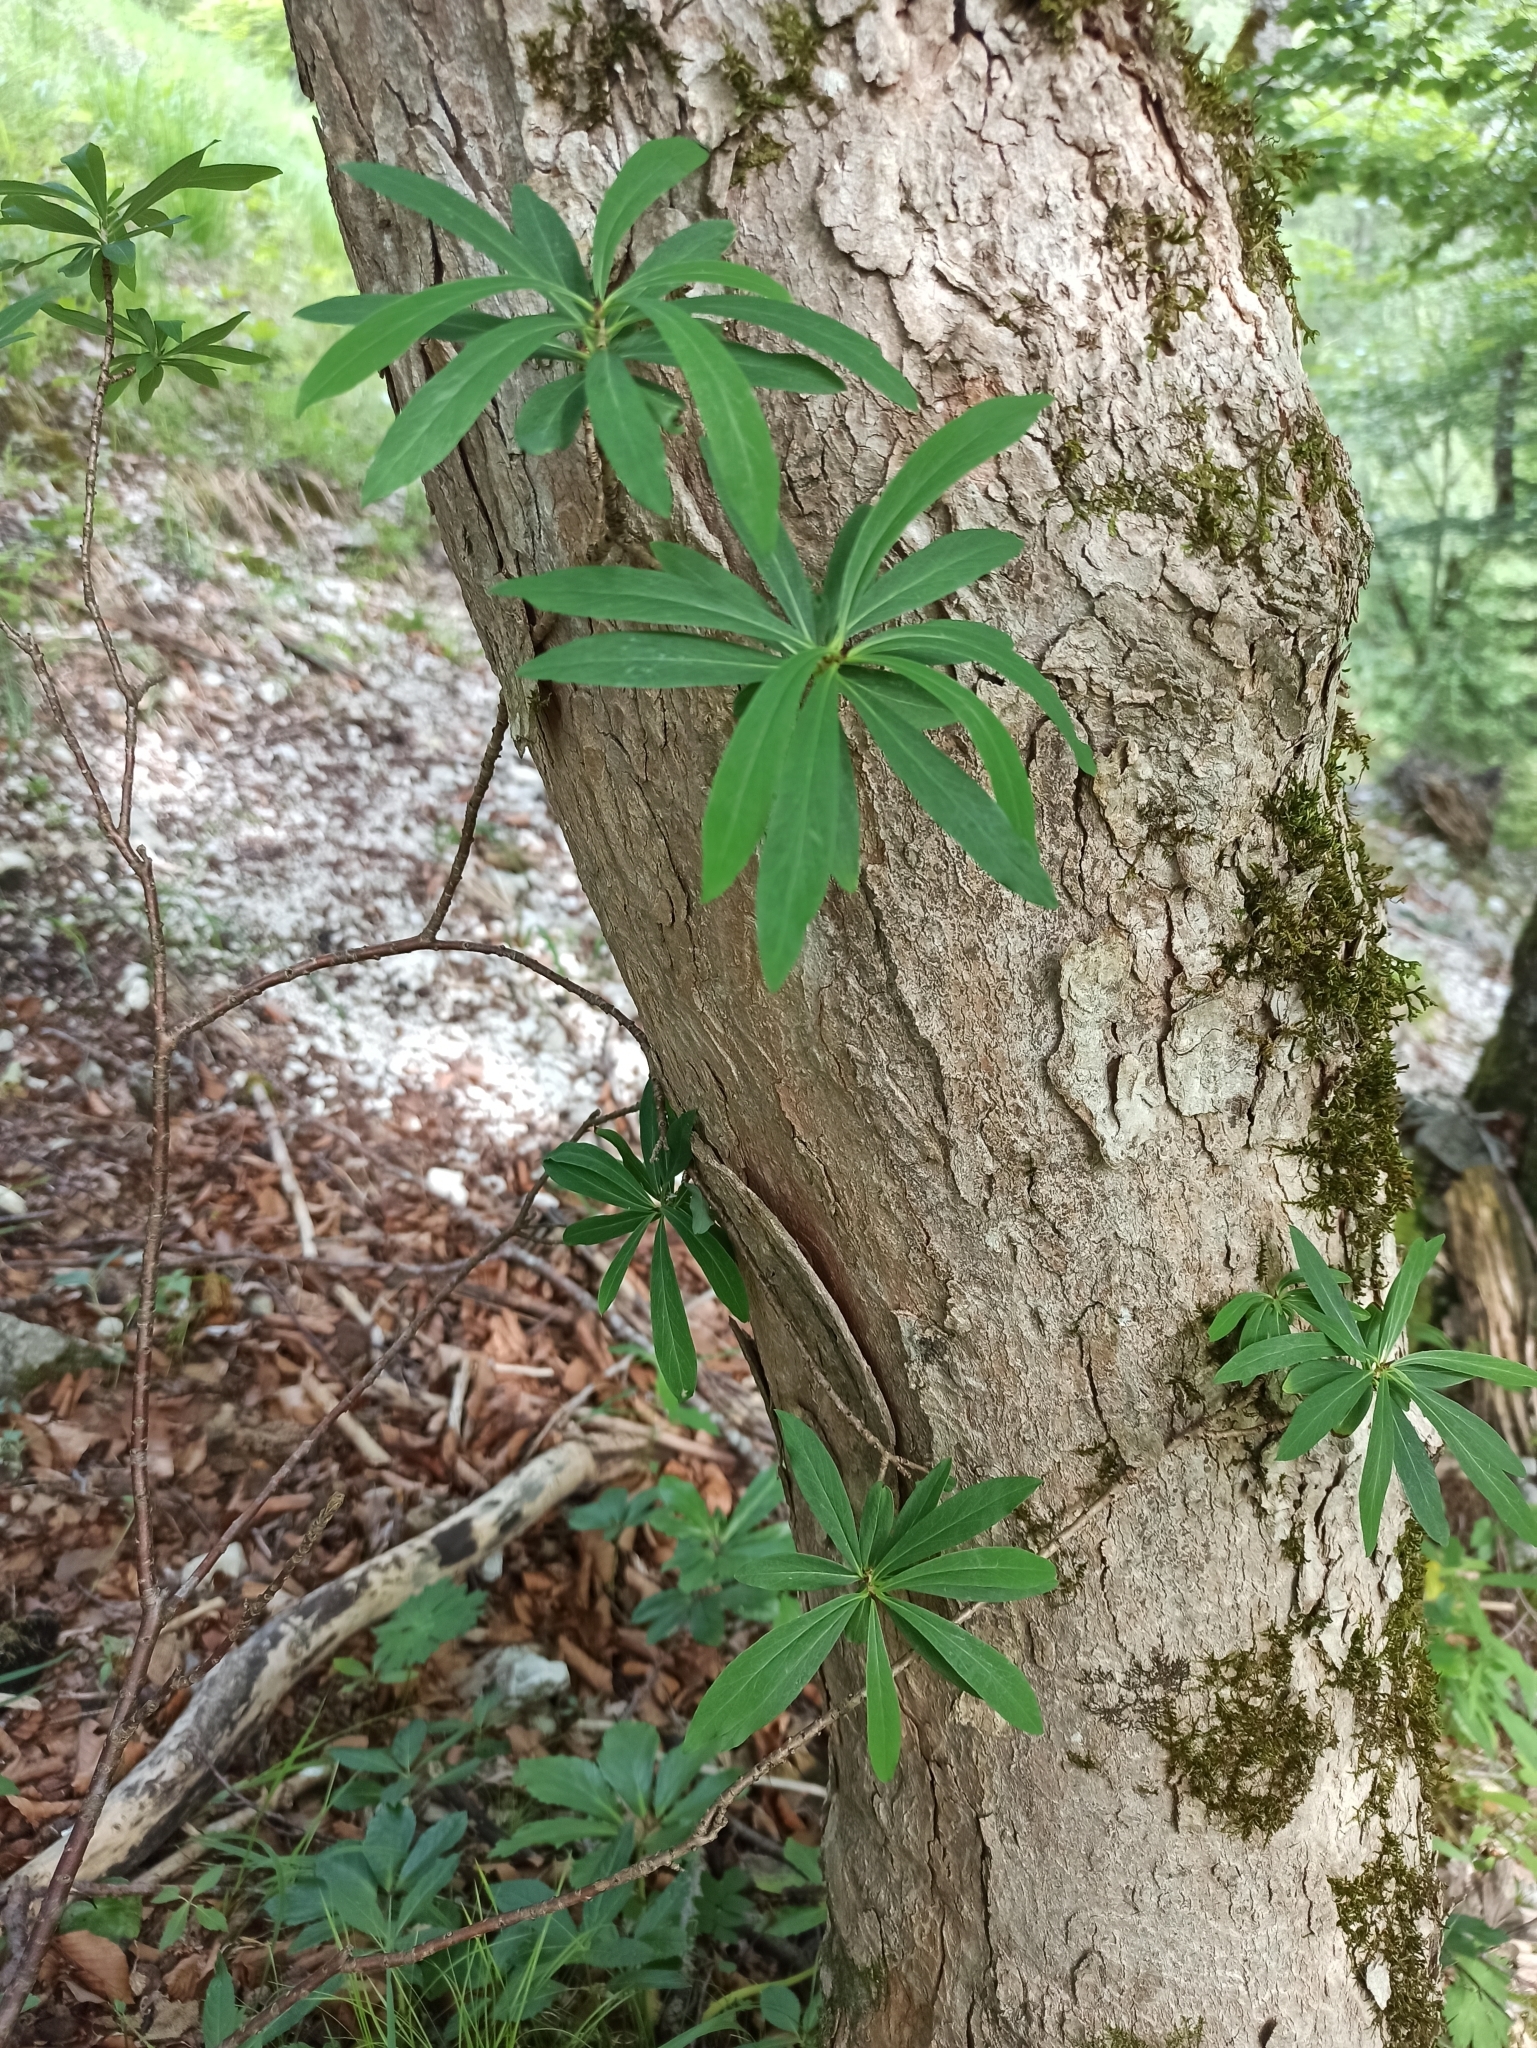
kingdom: Plantae
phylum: Tracheophyta
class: Magnoliopsida
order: Malvales
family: Thymelaeaceae
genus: Daphne
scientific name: Daphne mezereum
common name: Mezereon
